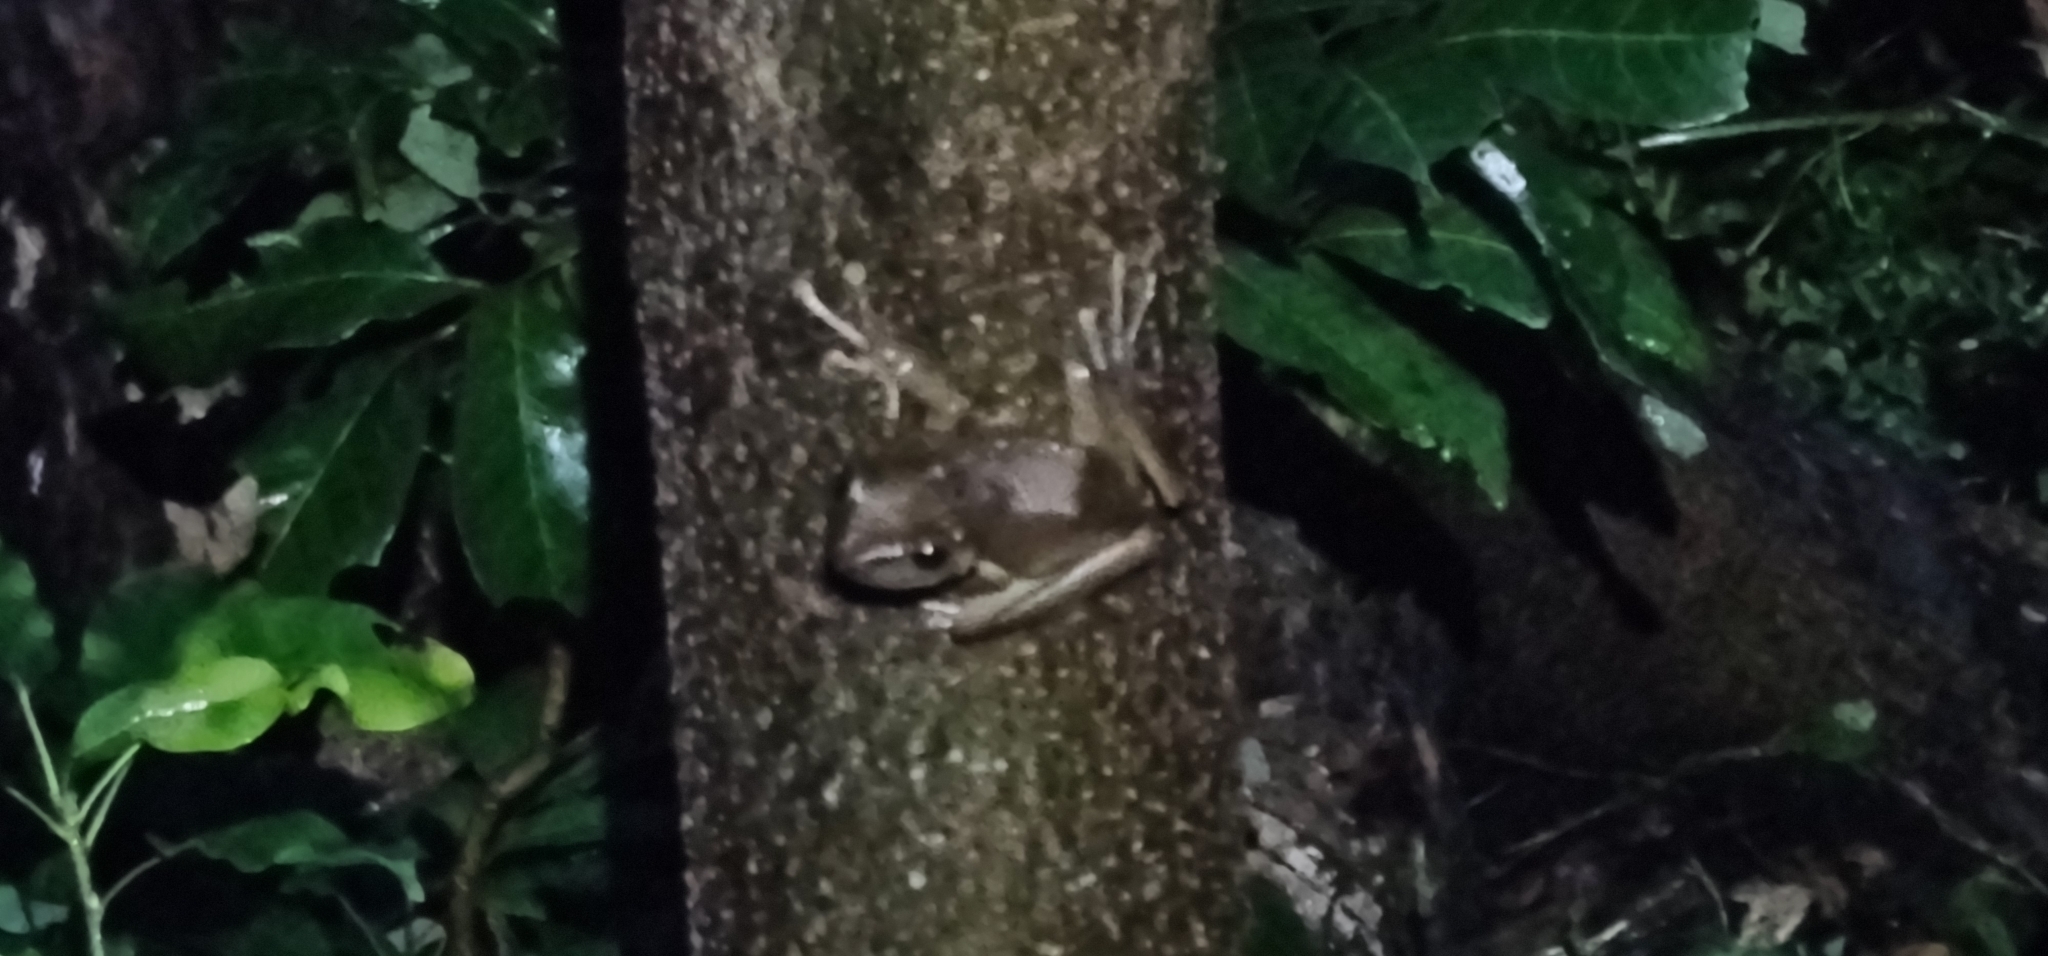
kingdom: Animalia
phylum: Chordata
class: Amphibia
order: Anura
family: Rhacophoridae
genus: Polypedates
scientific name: Polypedates megacephalus
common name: Hong kong whipping frog
